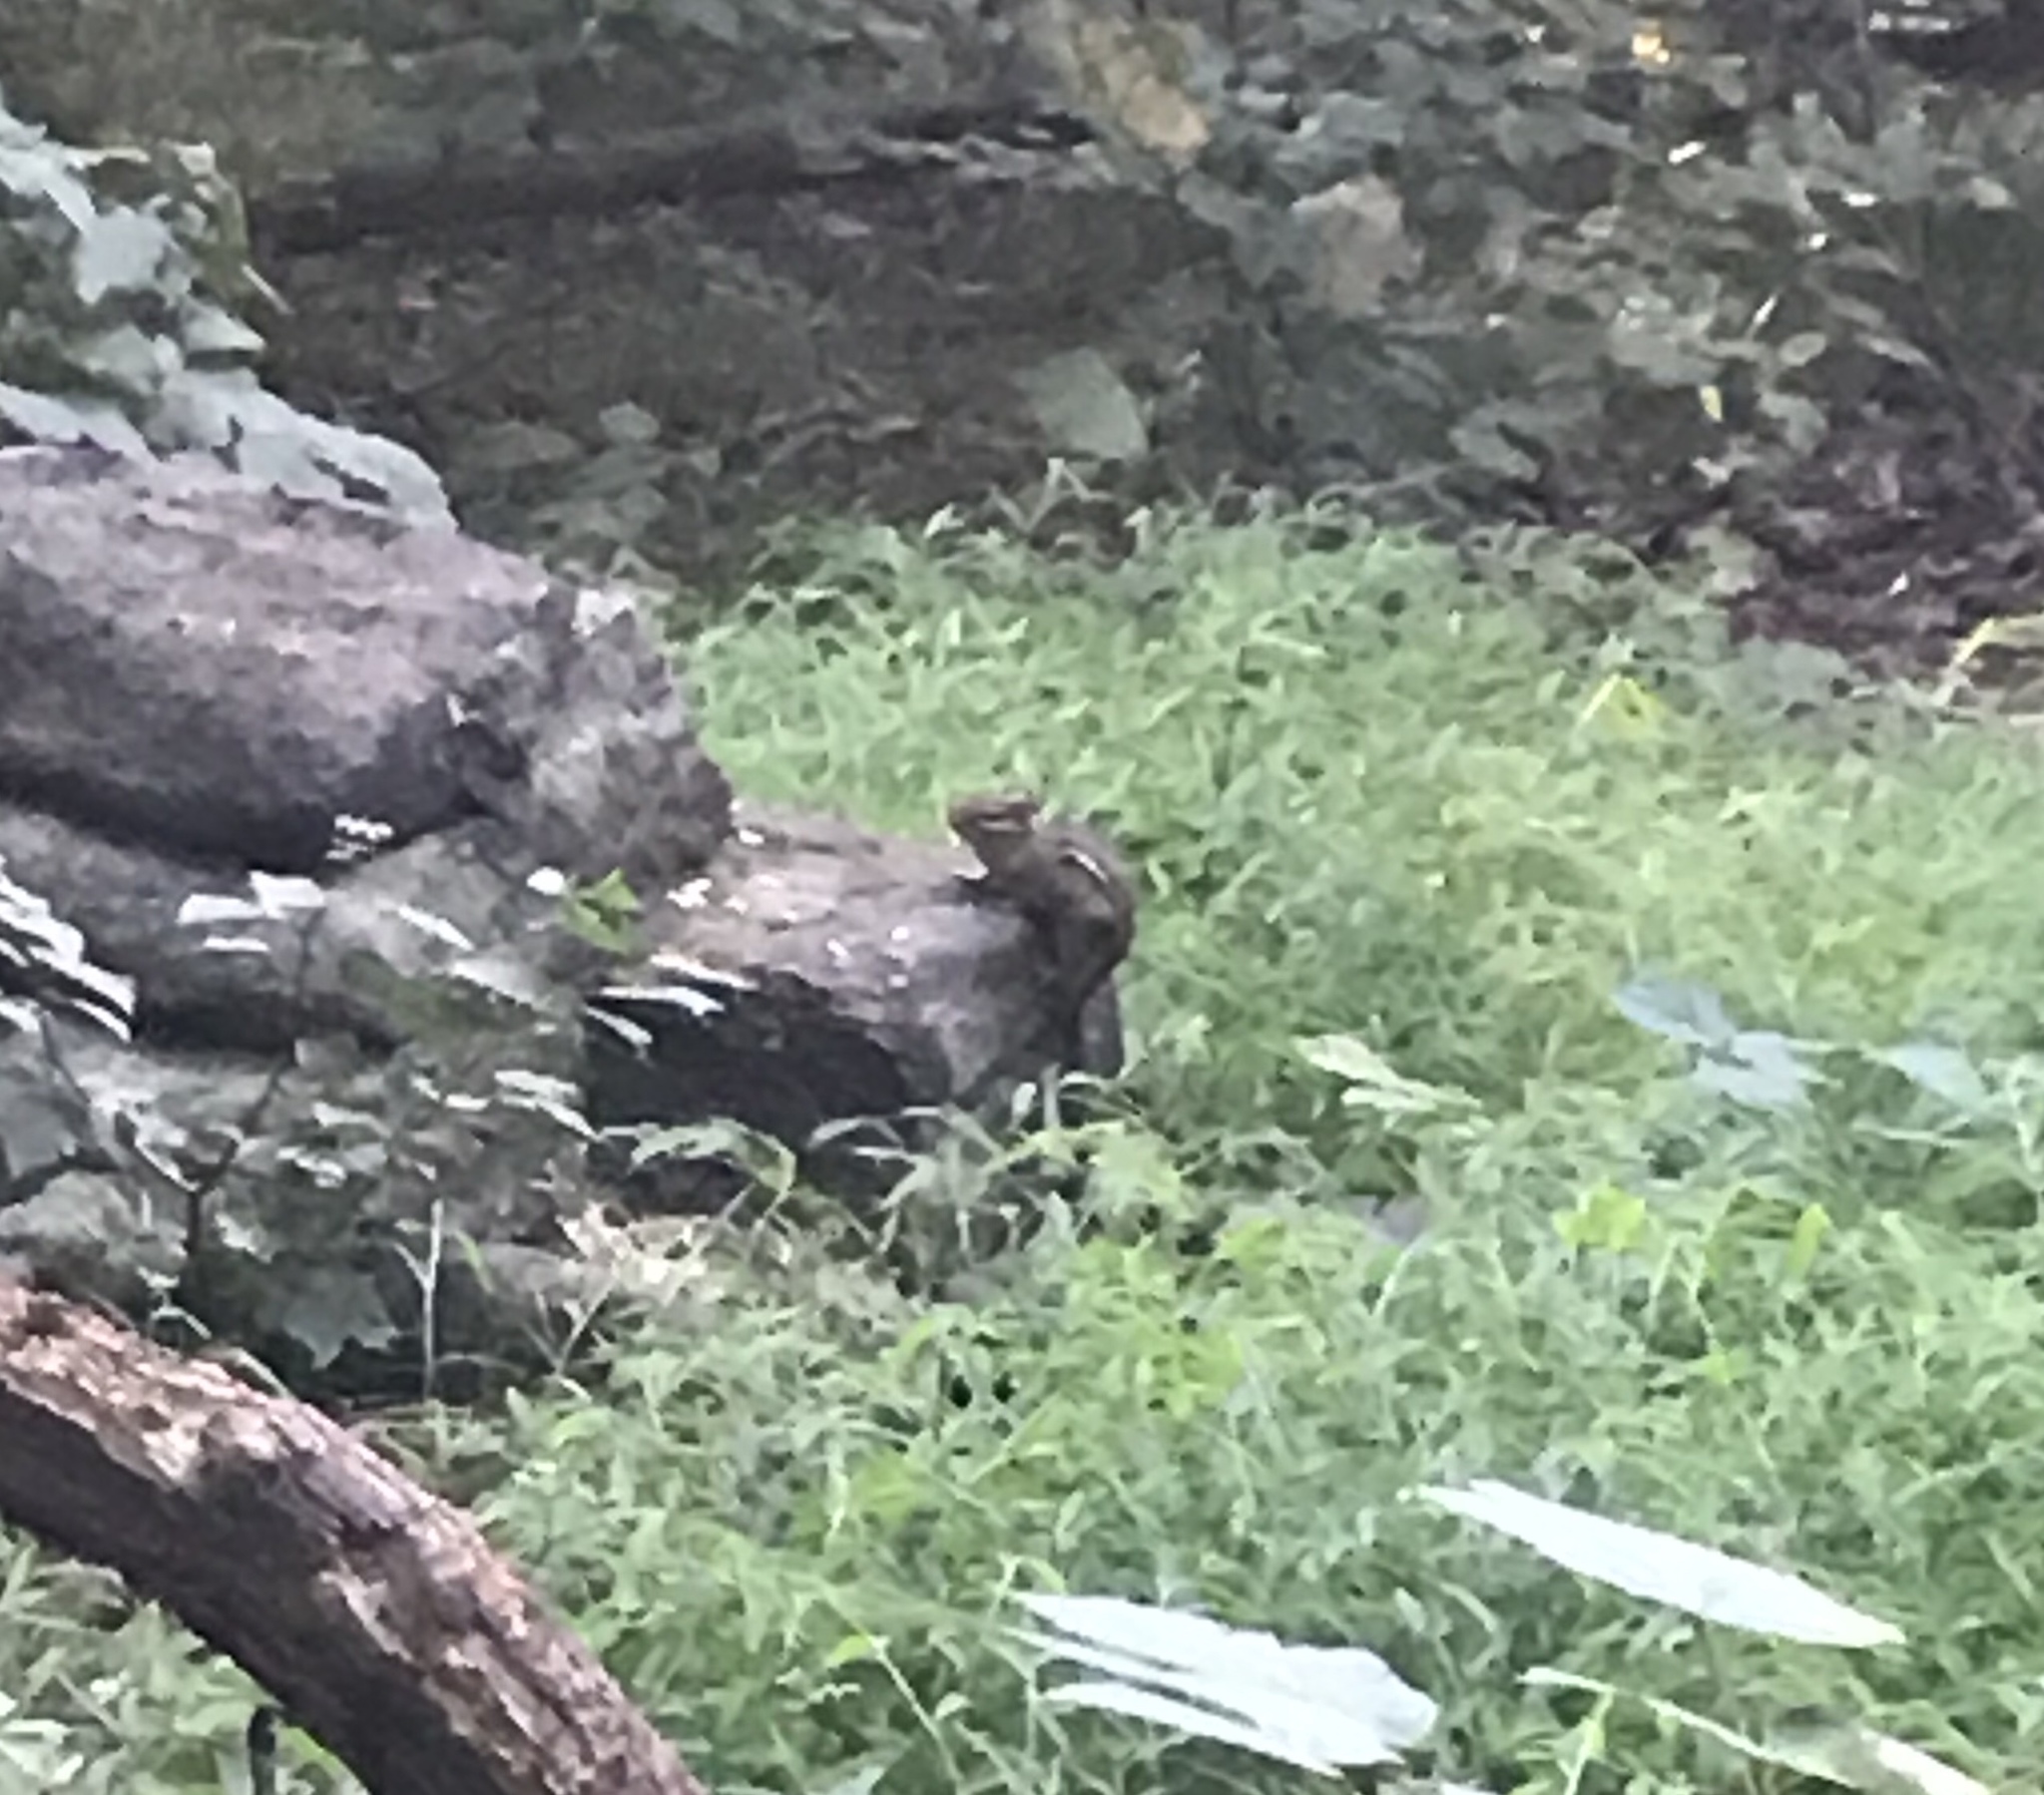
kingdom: Animalia
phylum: Chordata
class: Mammalia
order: Rodentia
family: Sciuridae
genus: Tamias
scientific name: Tamias striatus
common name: Eastern chipmunk
